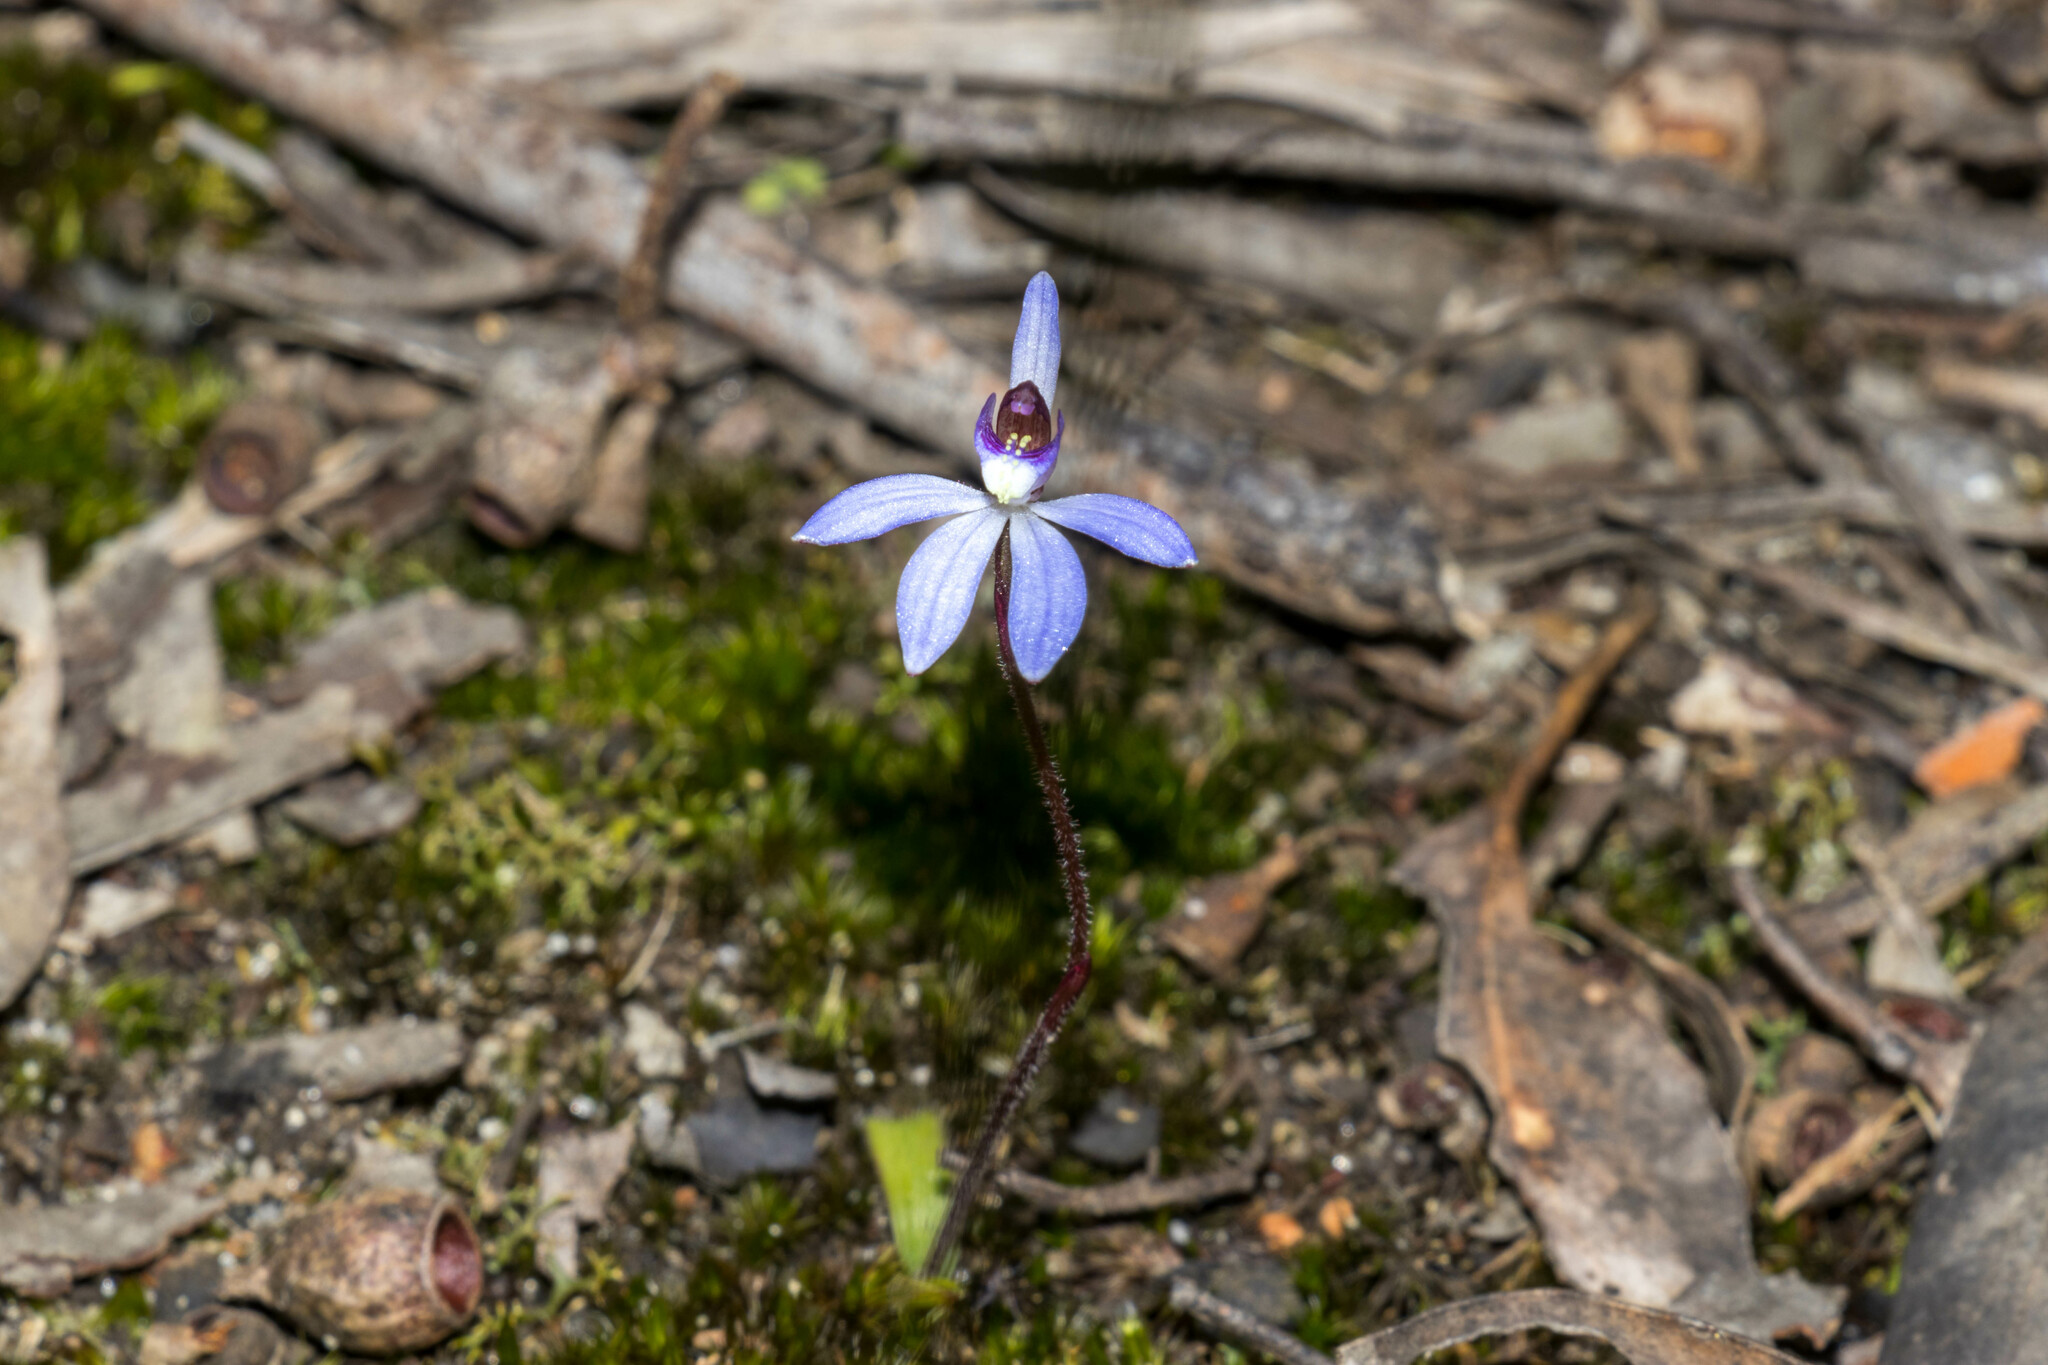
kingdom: Plantae
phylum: Tracheophyta
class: Liliopsida
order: Asparagales
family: Orchidaceae
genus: Caladenia
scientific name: Caladenia caerulea
